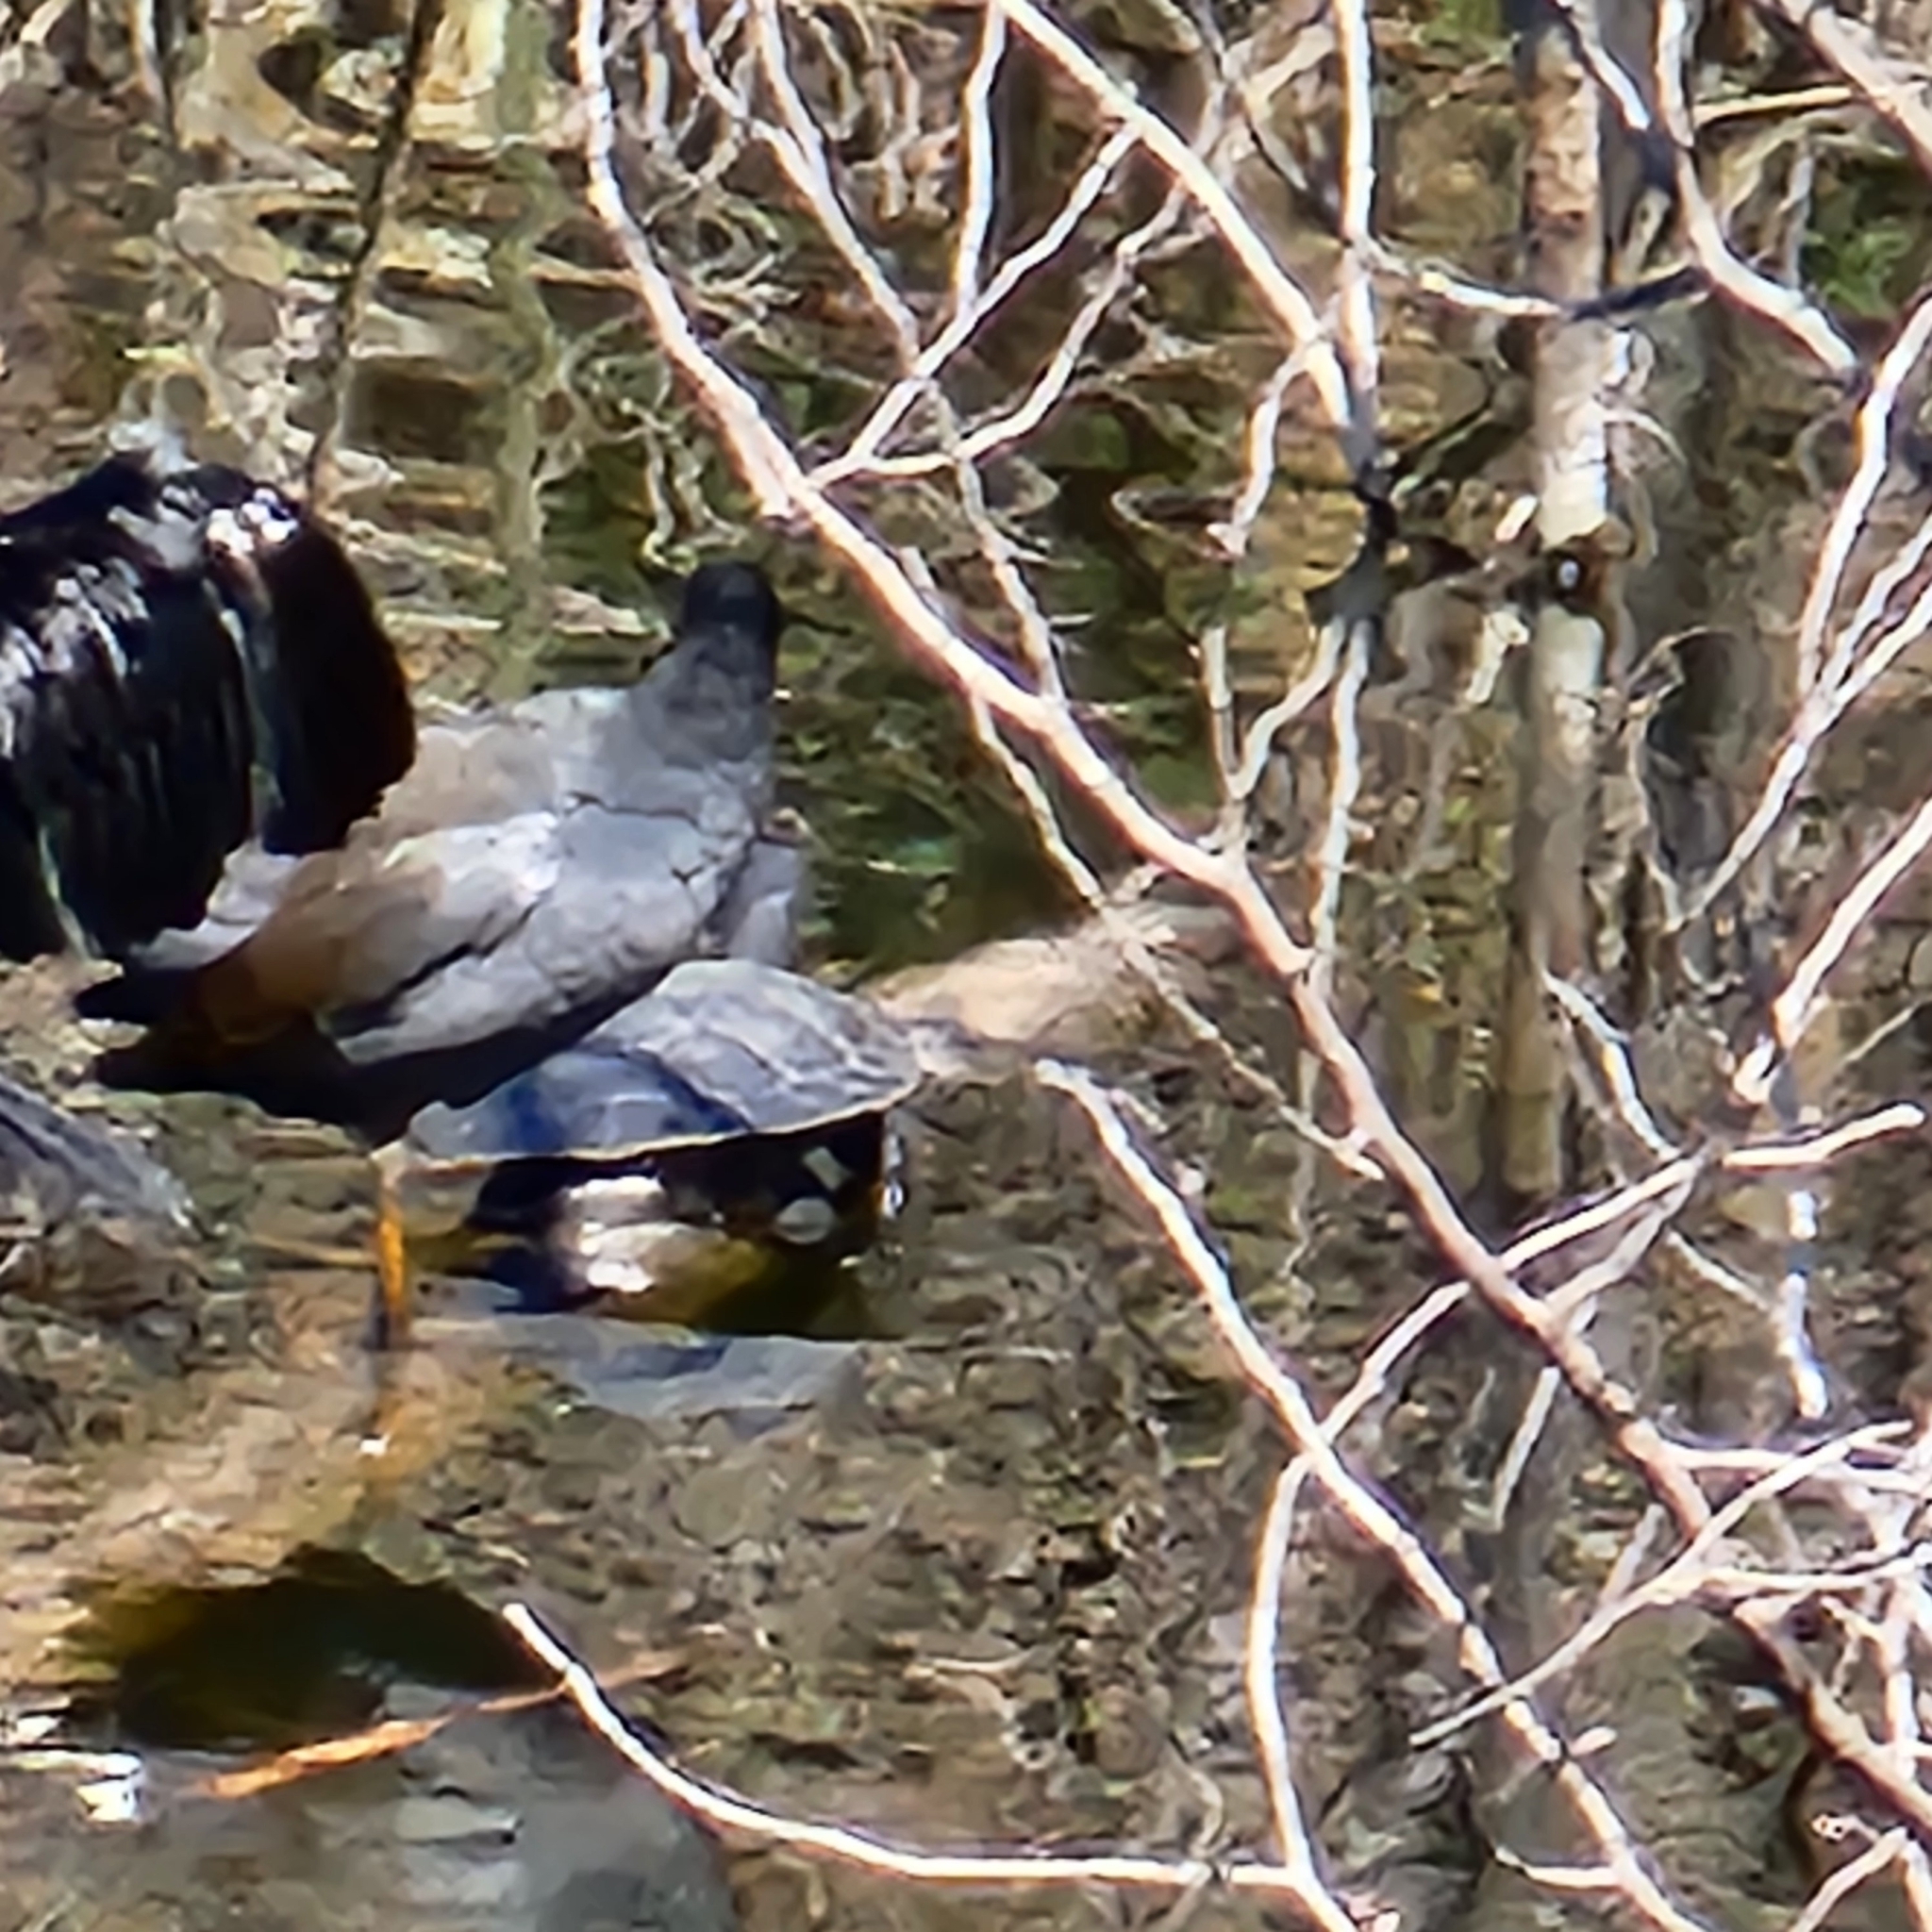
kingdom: Animalia
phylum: Chordata
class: Testudines
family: Chelidae
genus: Emydura
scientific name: Emydura macquarii
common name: Murray river turtle
